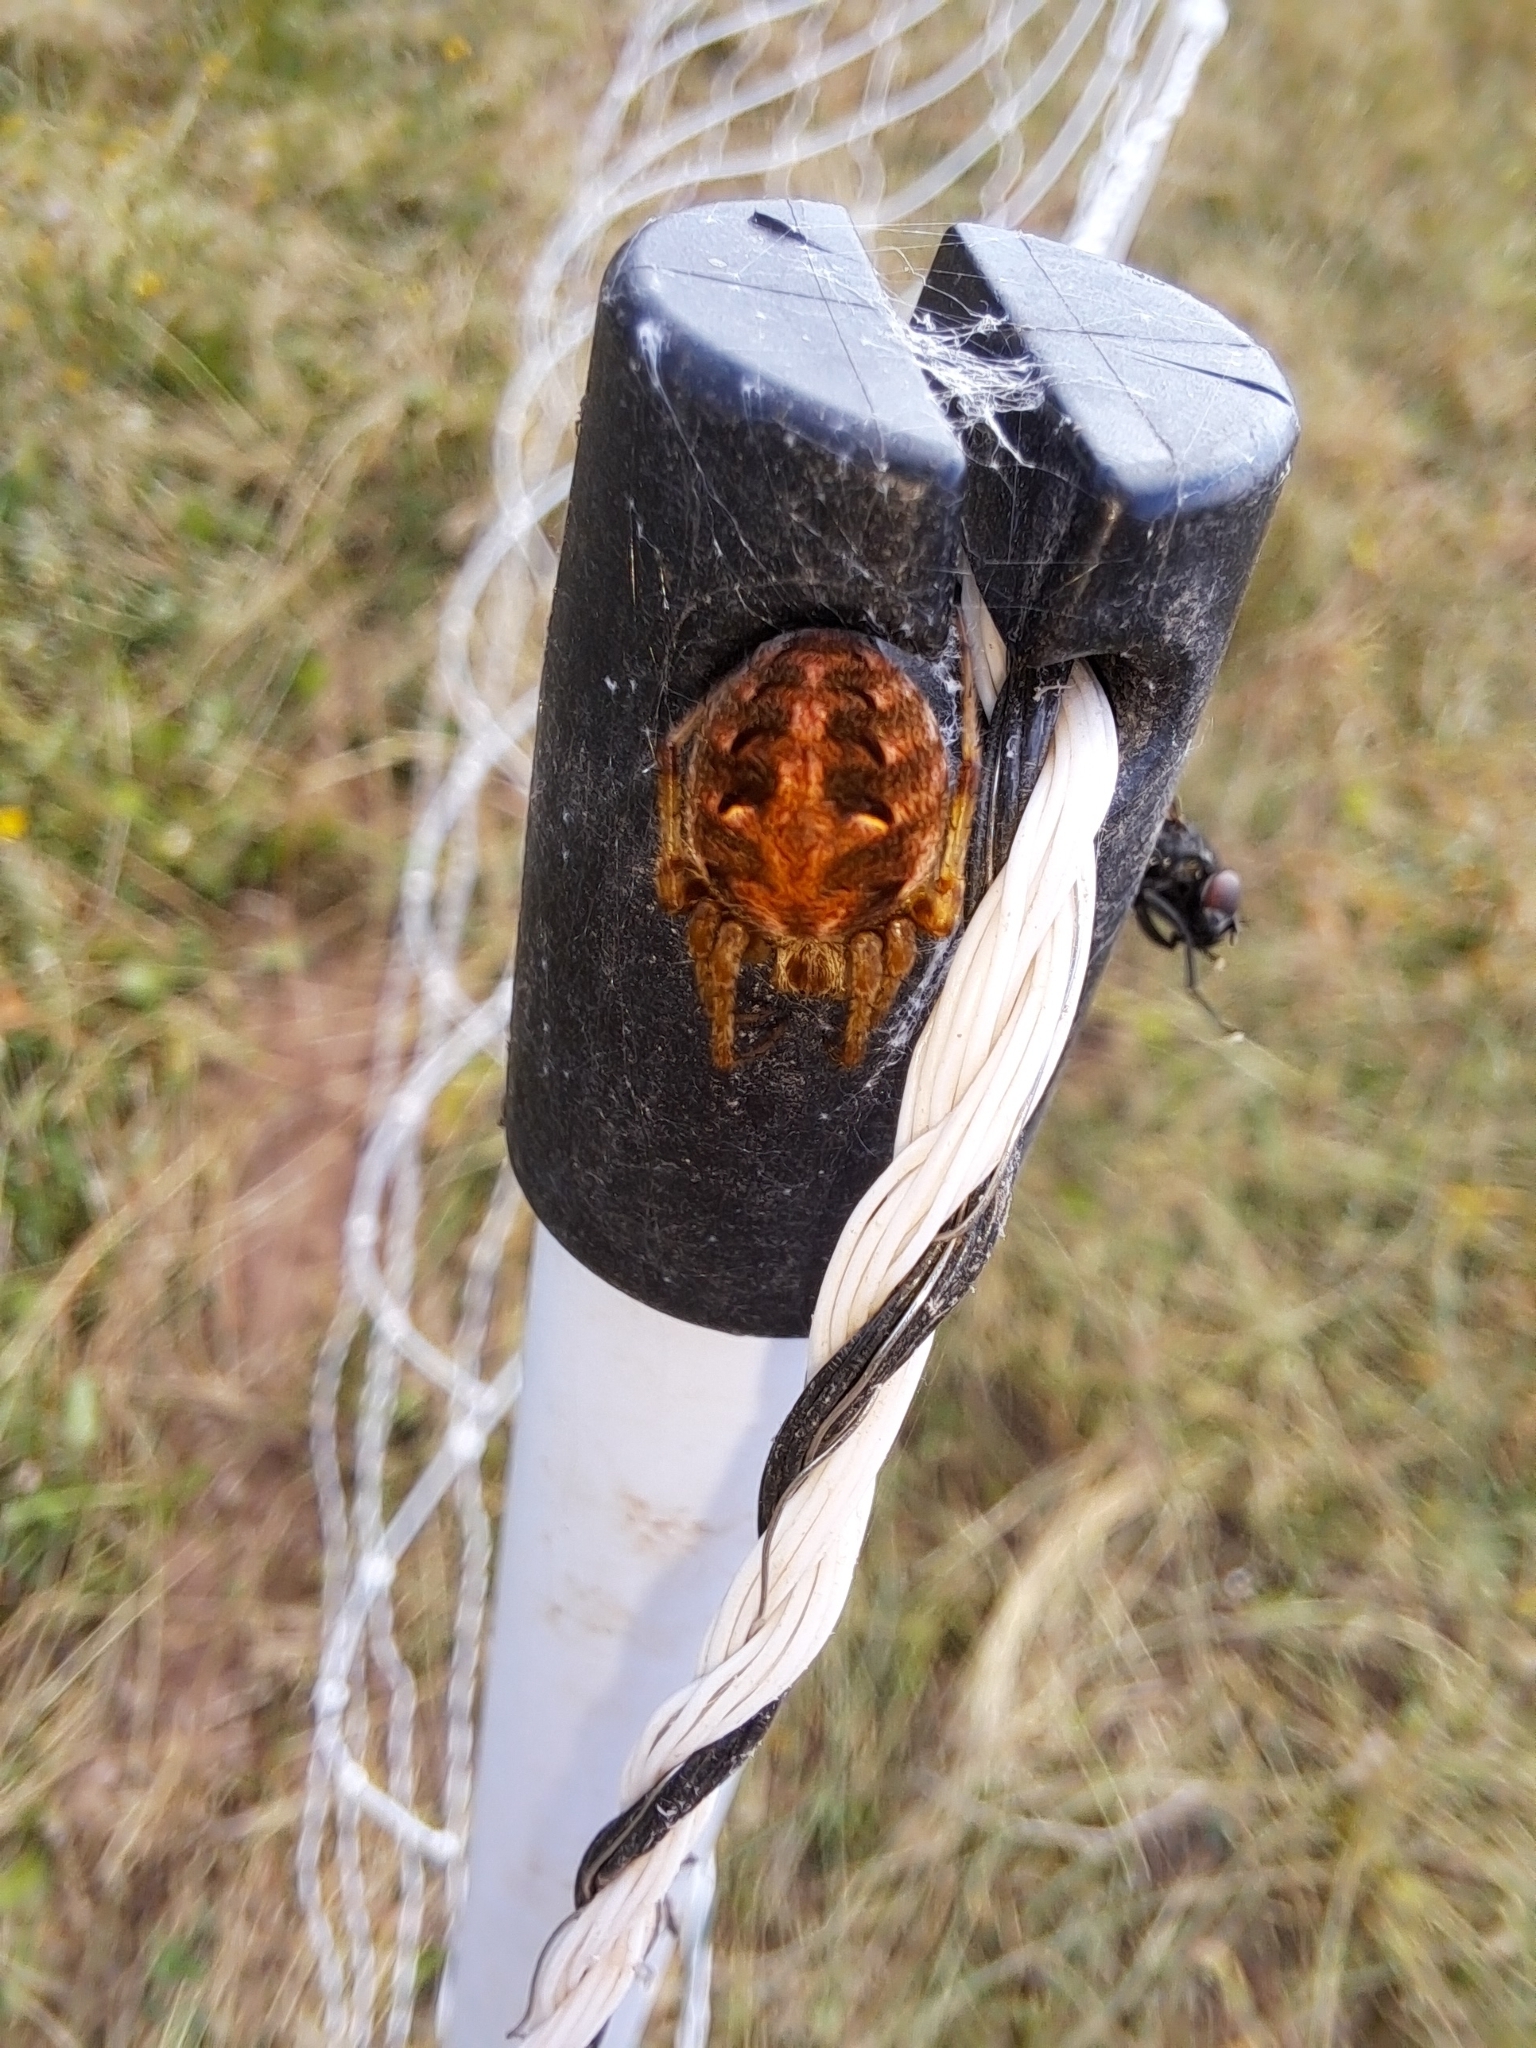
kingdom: Animalia
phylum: Arthropoda
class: Arachnida
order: Araneae
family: Araneidae
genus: Neoscona
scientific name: Neoscona arabesca
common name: Orb weavers
